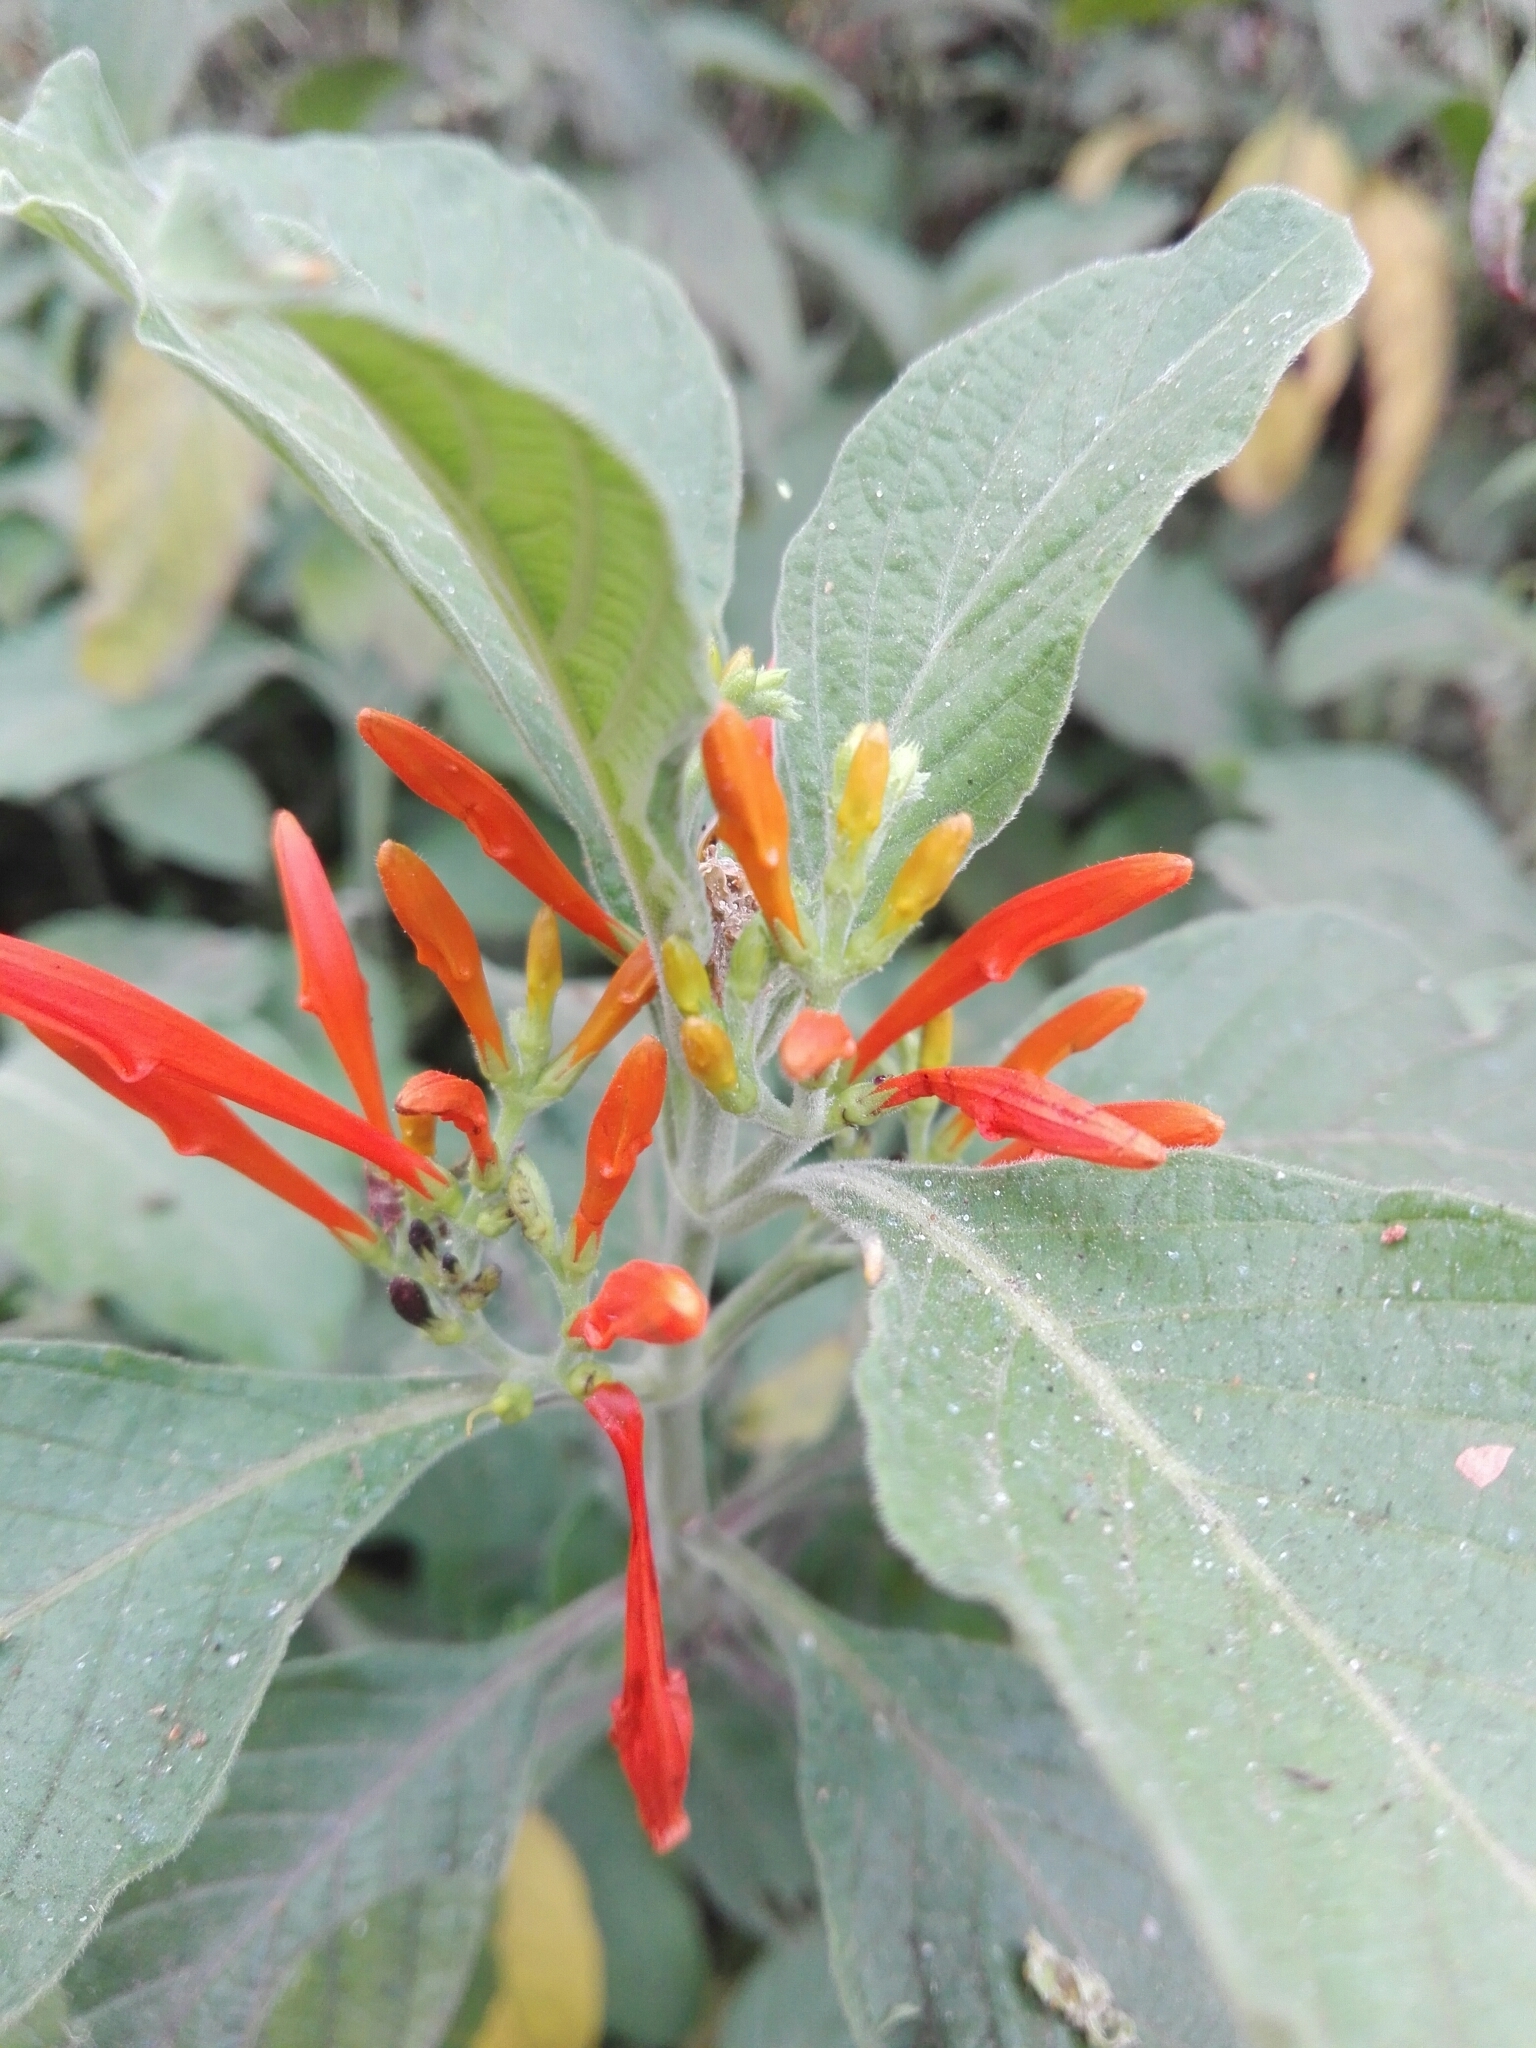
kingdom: Plantae
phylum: Tracheophyta
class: Magnoliopsida
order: Lamiales
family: Acanthaceae
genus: Justicia
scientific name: Justicia spicigera
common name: Mohintli
